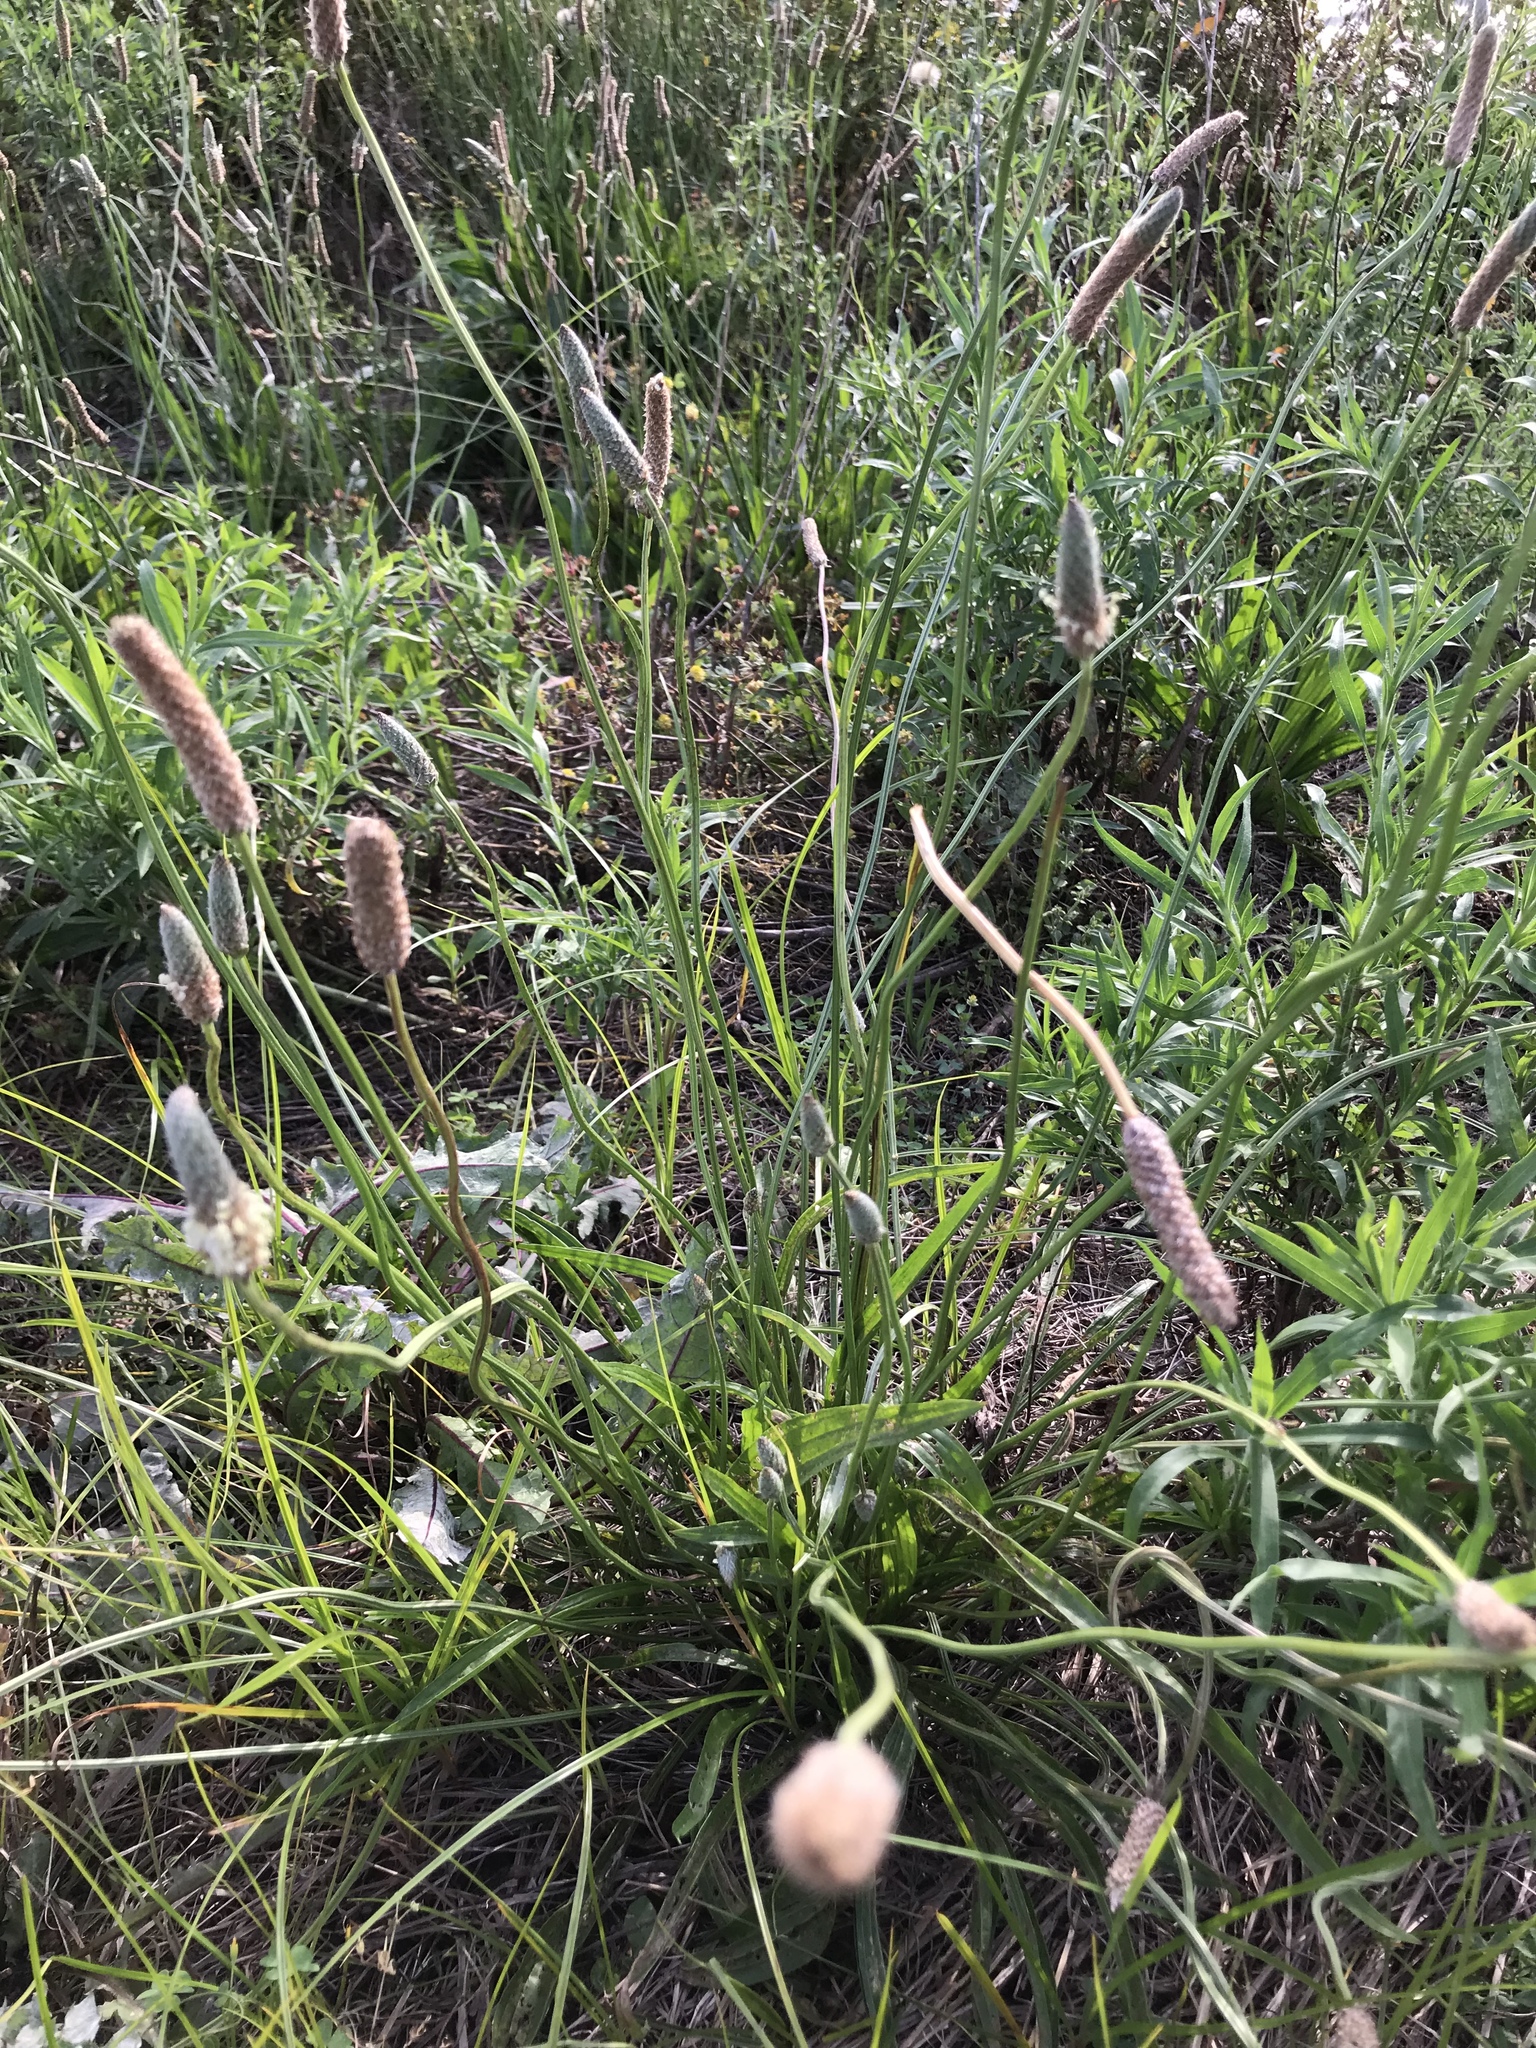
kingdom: Plantae
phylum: Tracheophyta
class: Magnoliopsida
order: Lamiales
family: Plantaginaceae
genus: Plantago
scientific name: Plantago lanceolata
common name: Ribwort plantain
